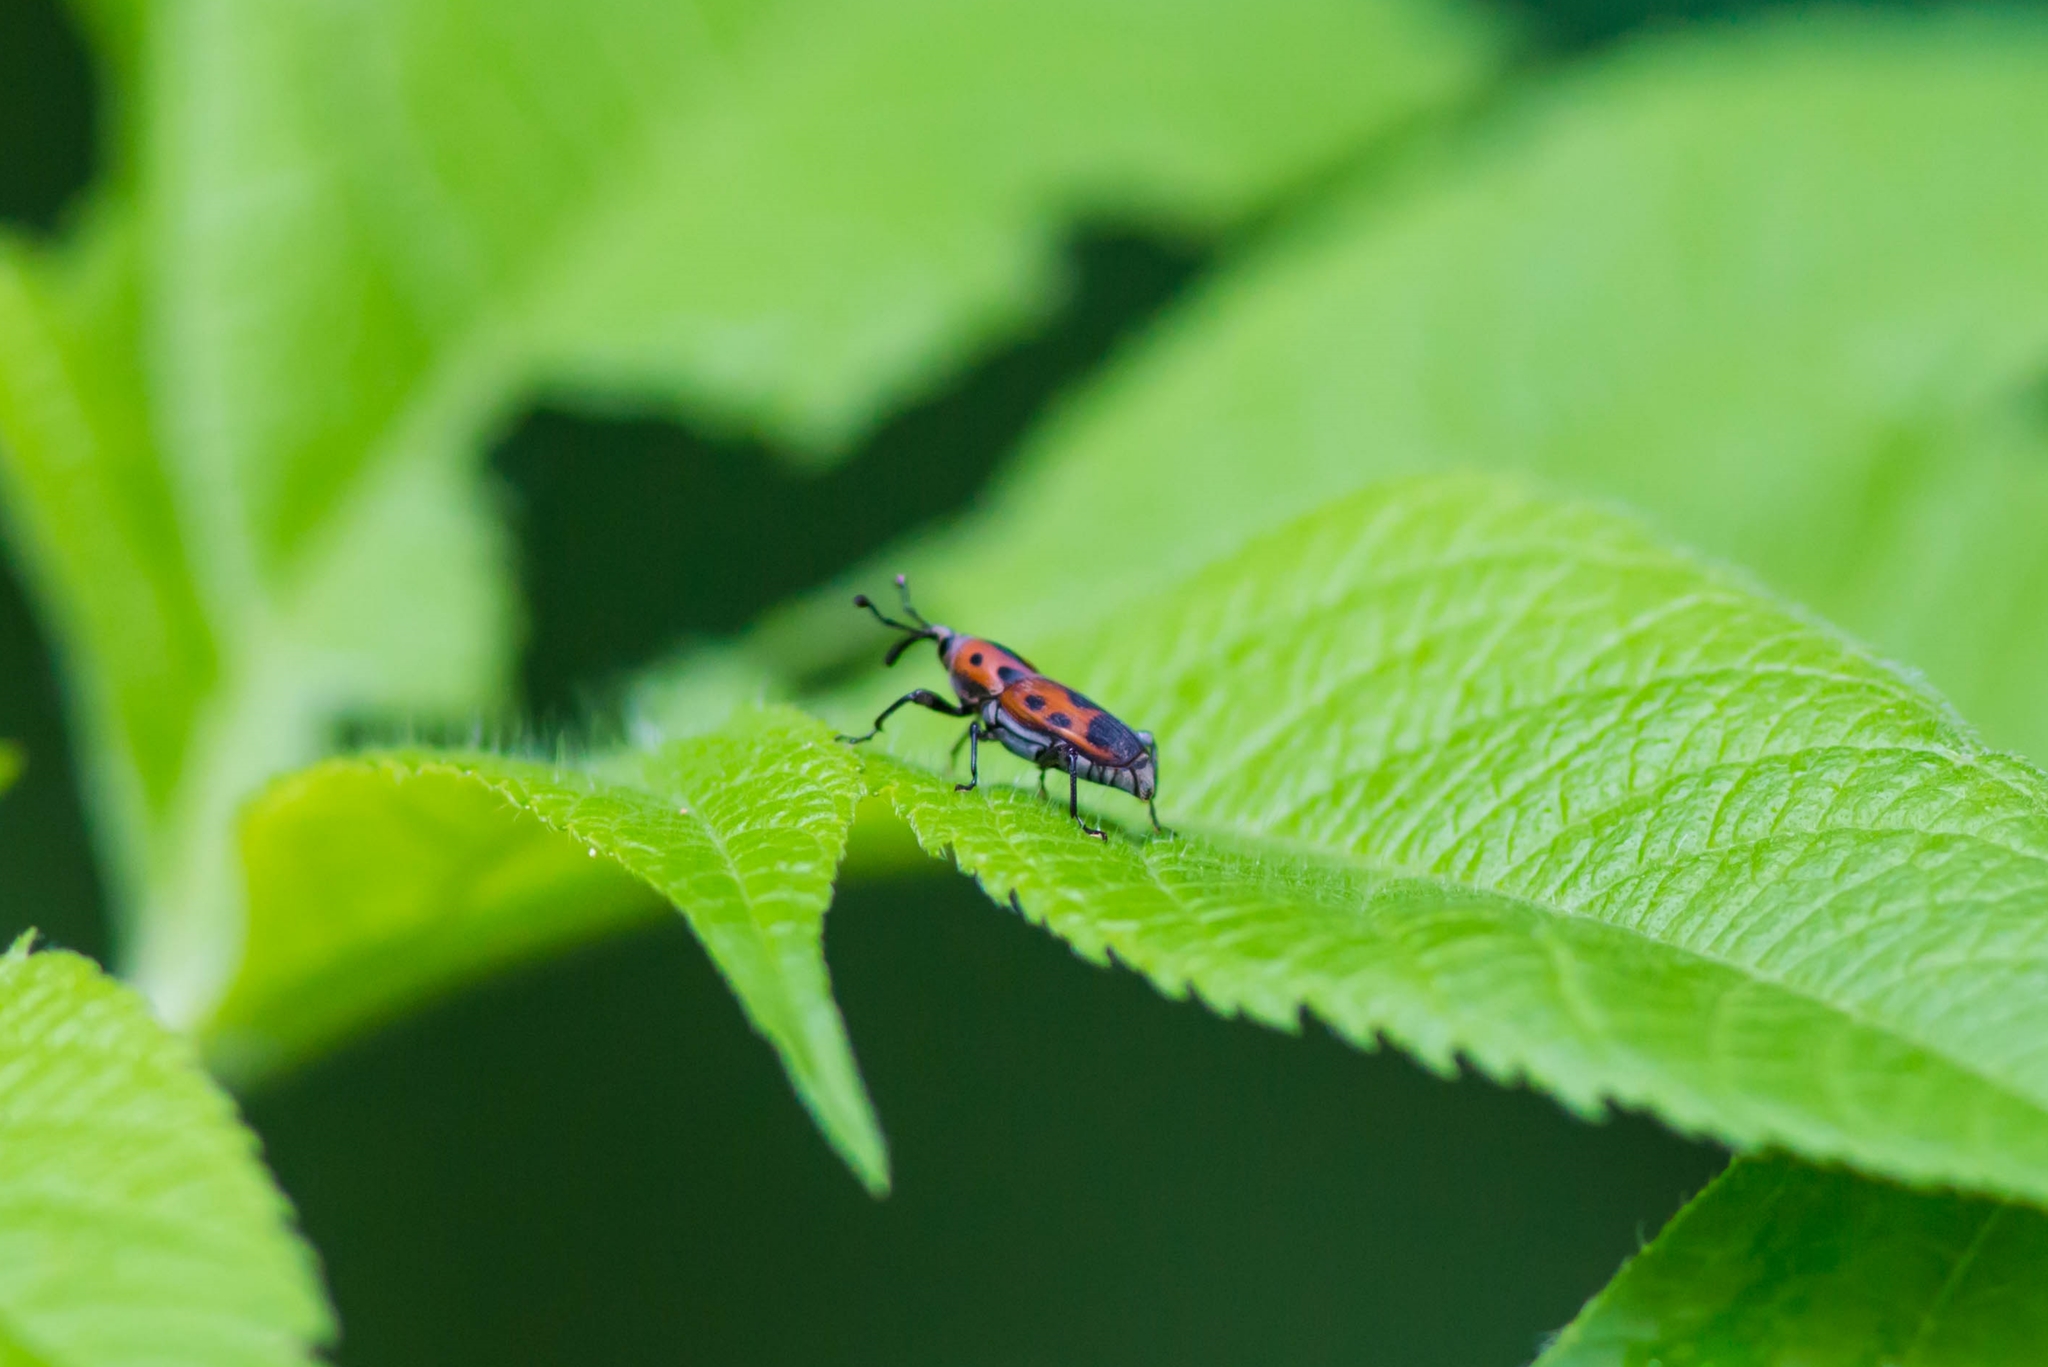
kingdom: Animalia
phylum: Arthropoda
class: Insecta
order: Coleoptera
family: Dryophthoridae
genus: Rhodobaenus
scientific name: Rhodobaenus quinquepunctatus
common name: Cocklebur weevil
